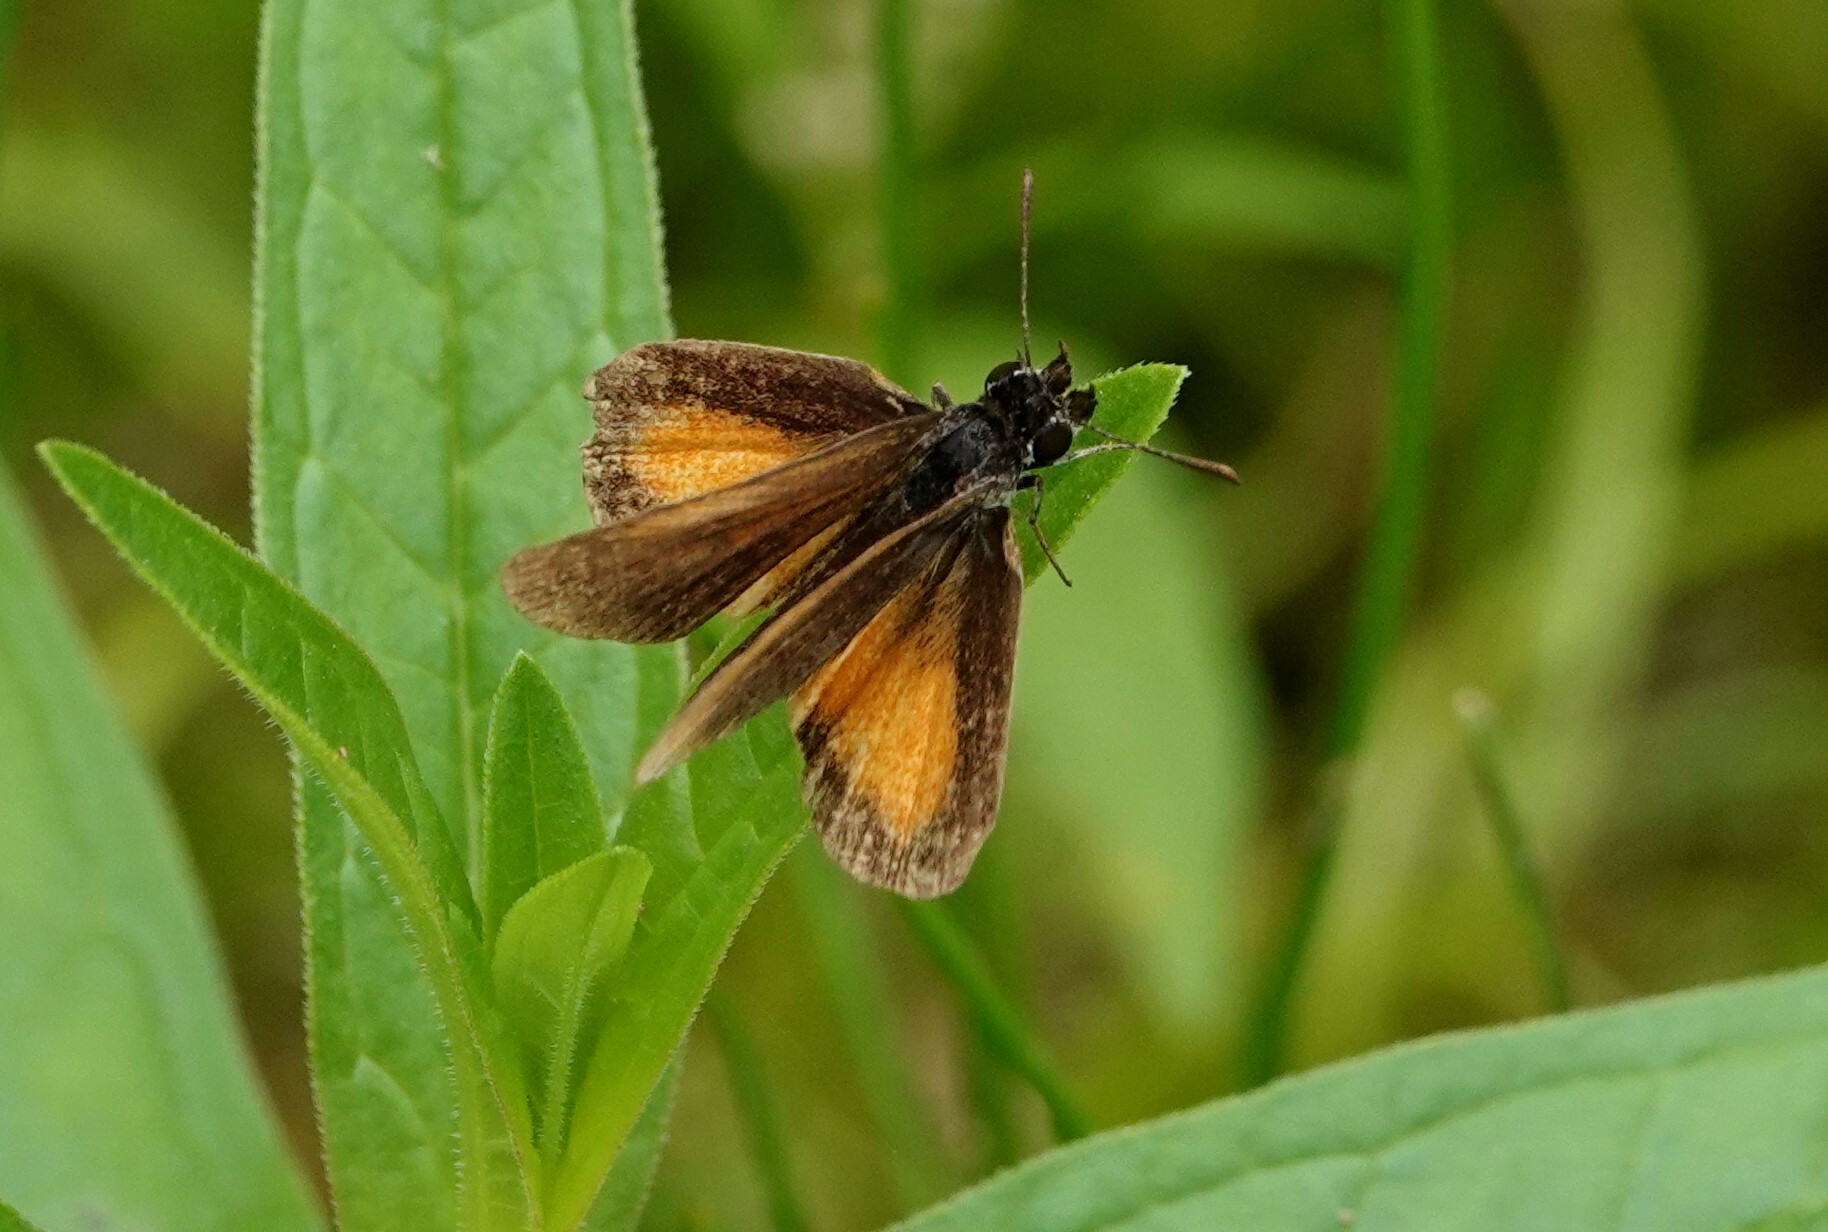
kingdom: Animalia
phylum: Arthropoda
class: Insecta
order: Lepidoptera
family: Hesperiidae
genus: Ancyloxypha
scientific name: Ancyloxypha numitor
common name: Least skipper
